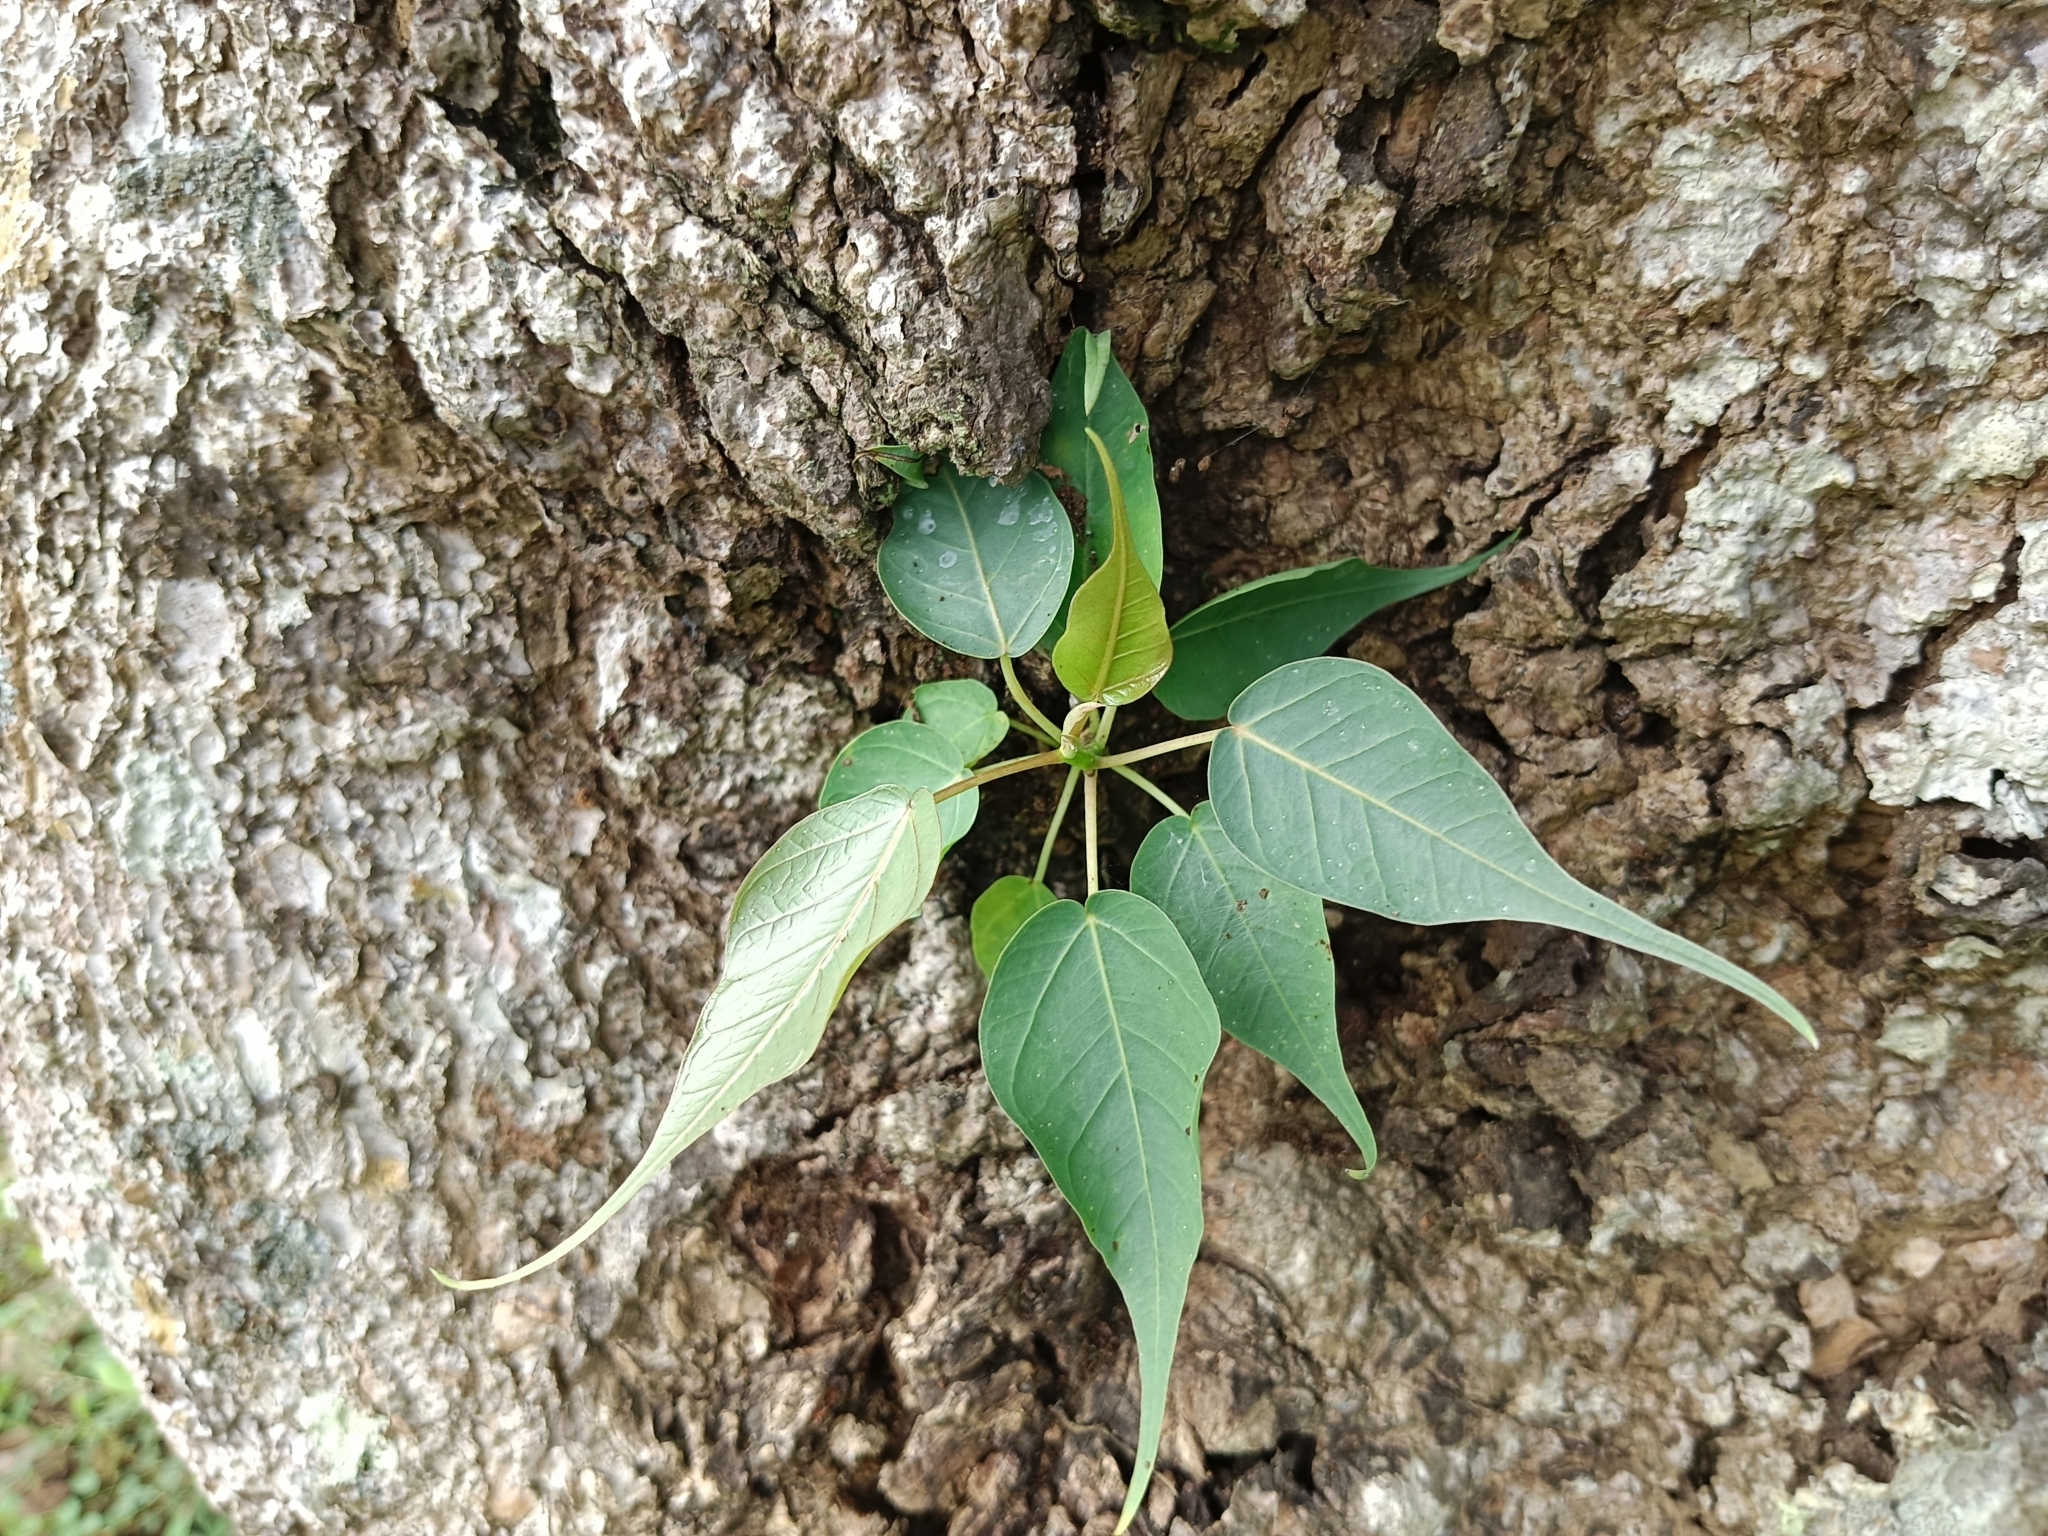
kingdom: Plantae
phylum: Tracheophyta
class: Magnoliopsida
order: Rosales
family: Moraceae
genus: Ficus
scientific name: Ficus religiosa
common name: Bodhi tree
